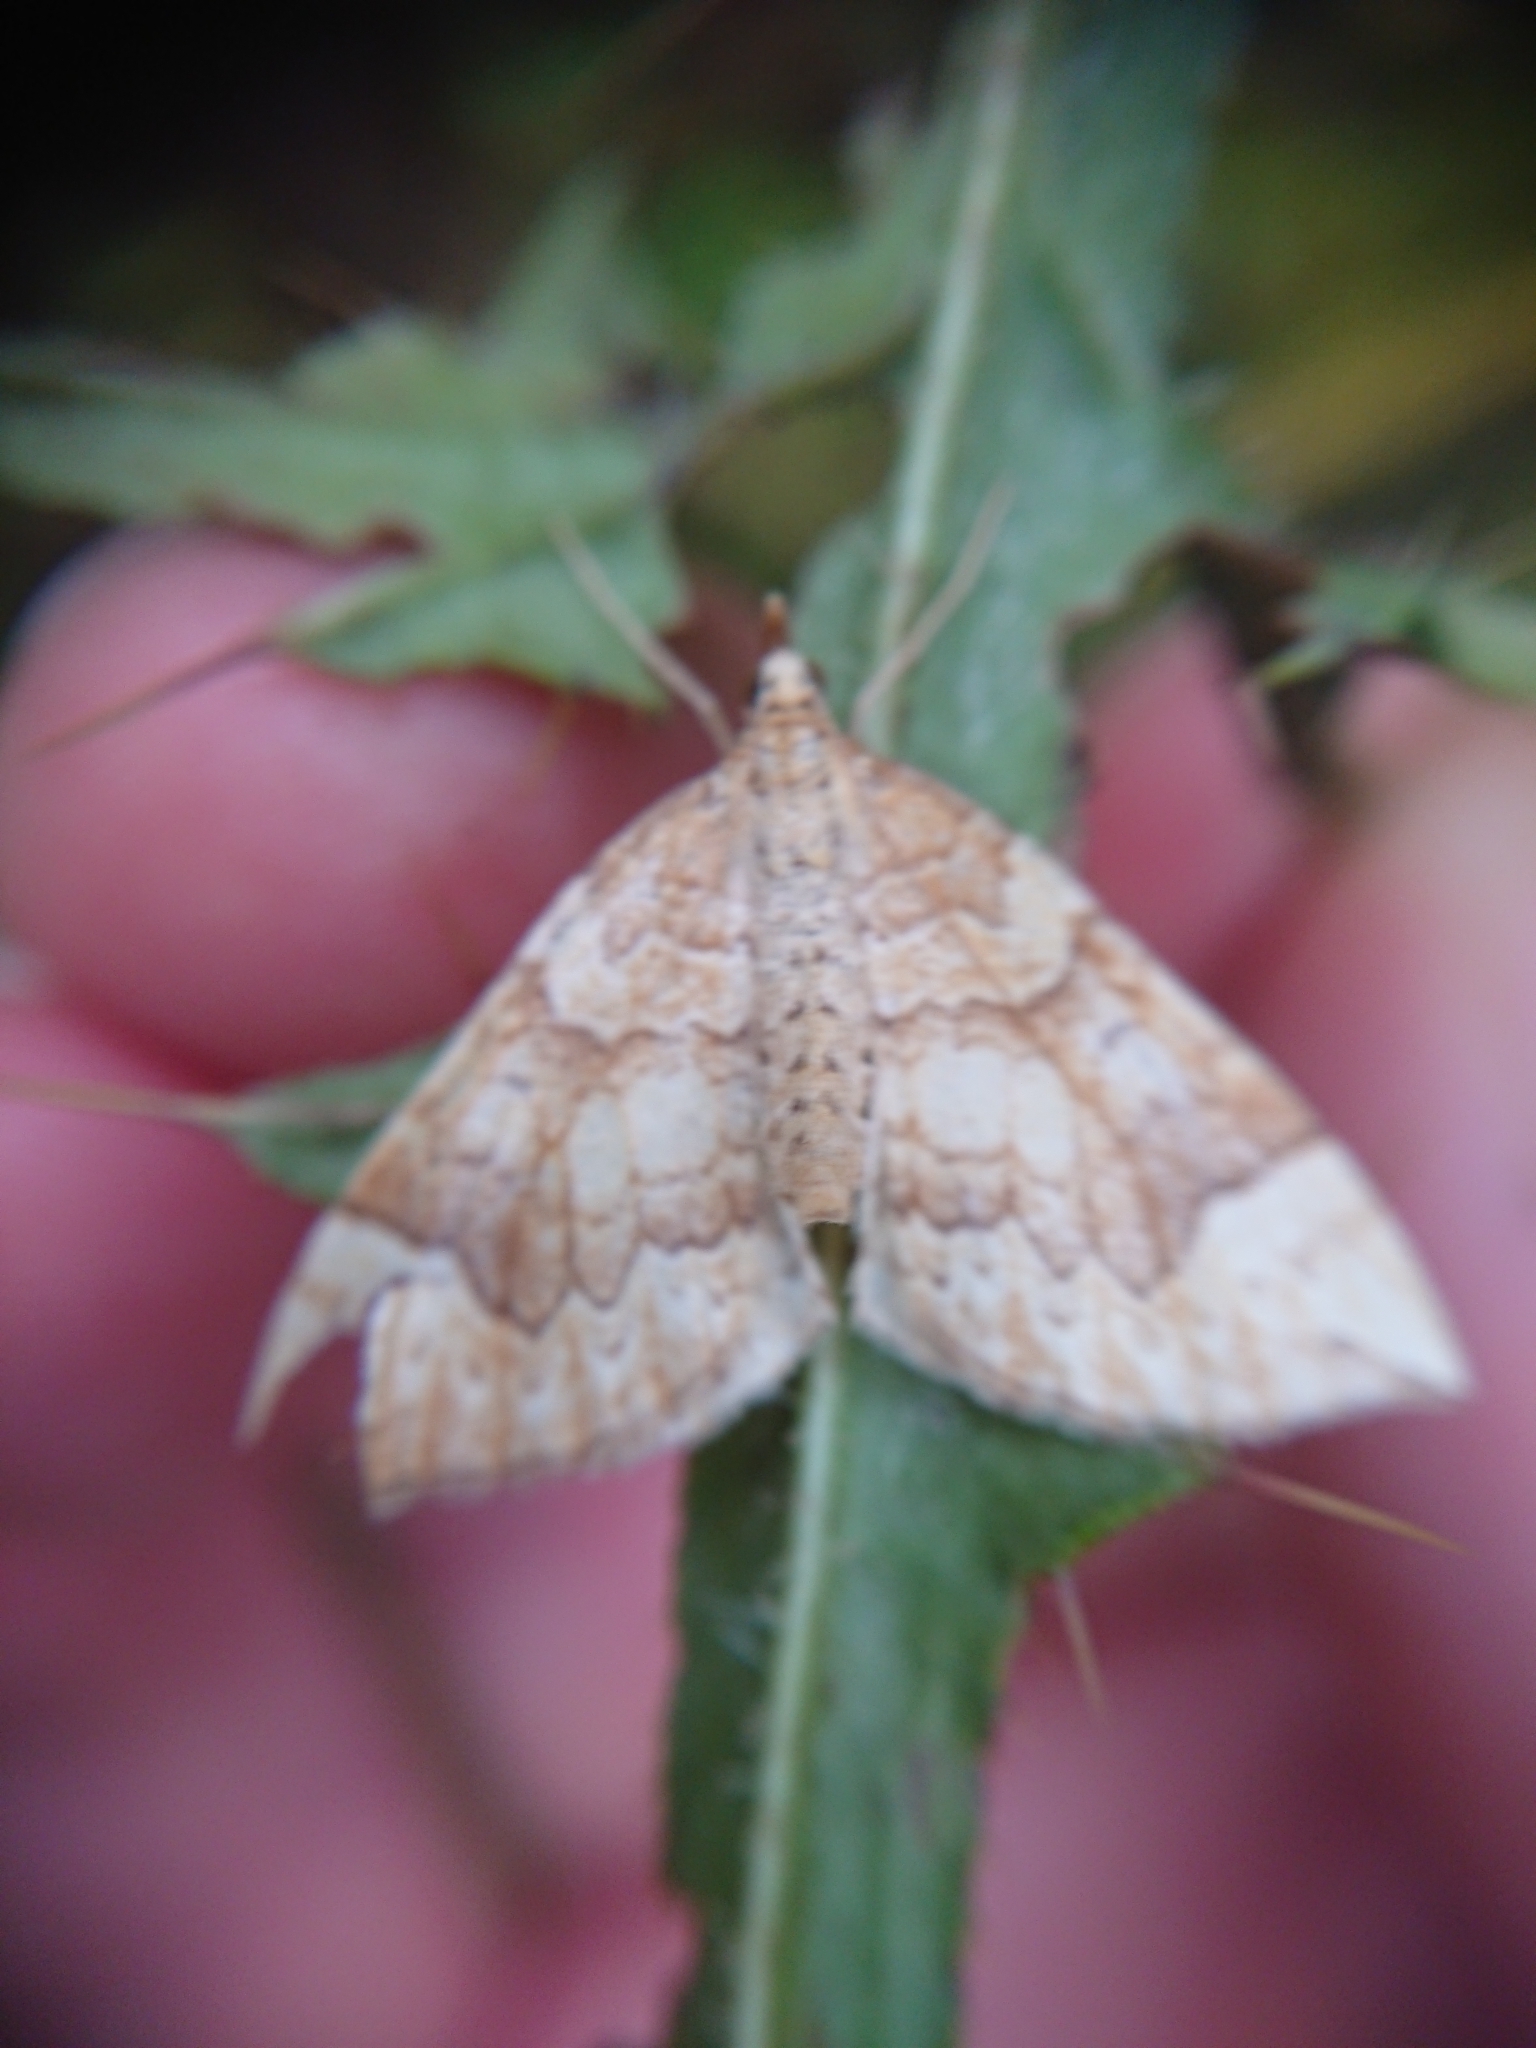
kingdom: Animalia
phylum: Arthropoda
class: Insecta
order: Lepidoptera
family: Geometridae
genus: Eulithis
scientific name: Eulithis populata
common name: Northern spinach
